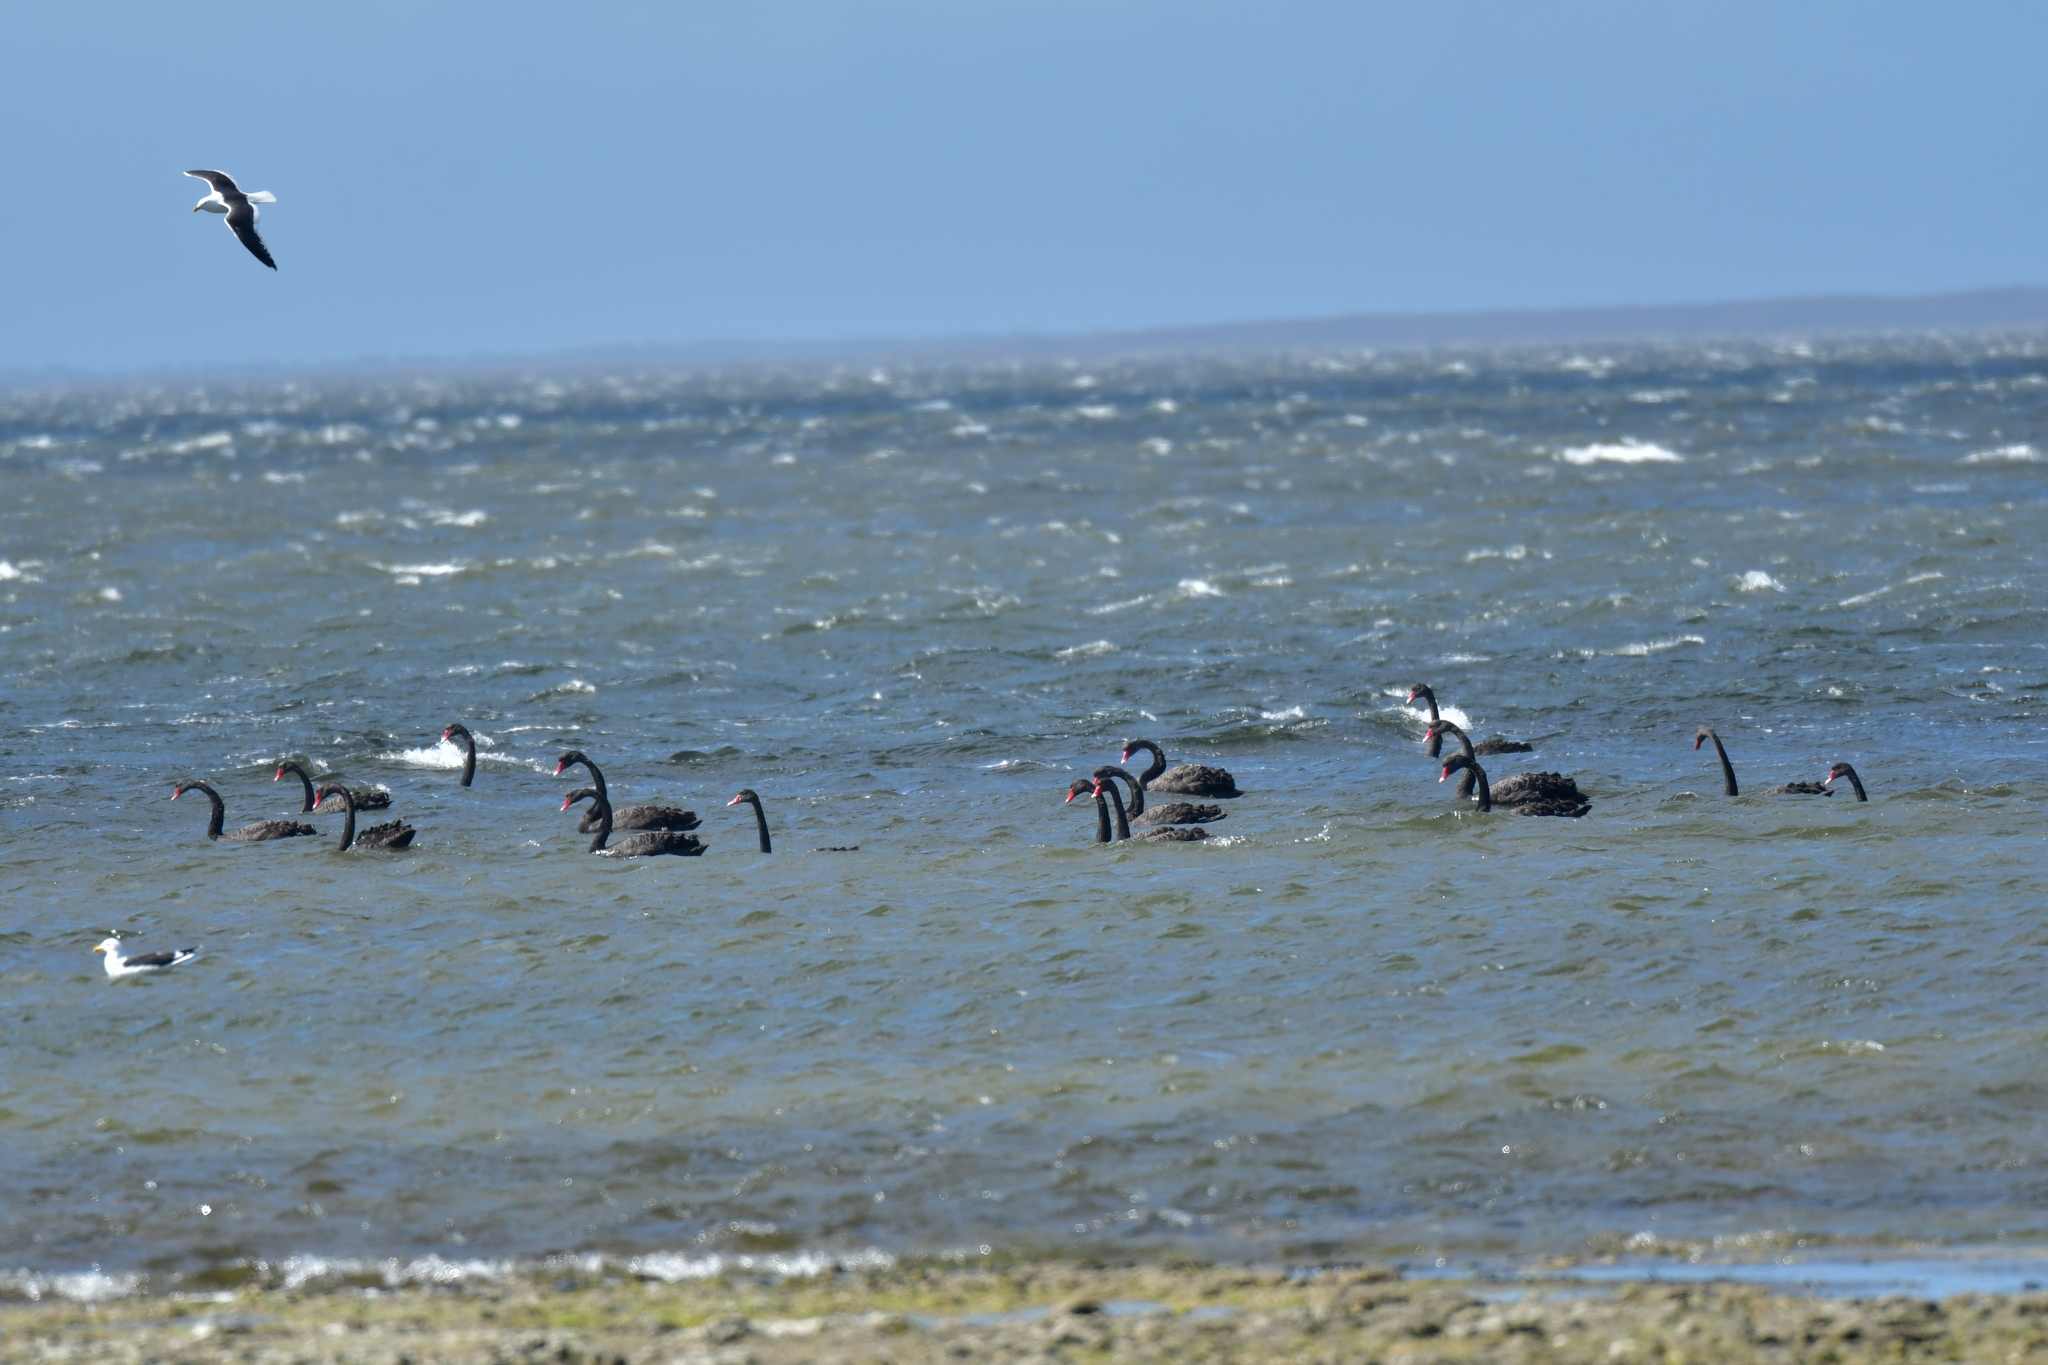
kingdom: Animalia
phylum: Chordata
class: Aves
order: Anseriformes
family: Anatidae
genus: Cygnus
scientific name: Cygnus atratus
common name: Black swan
